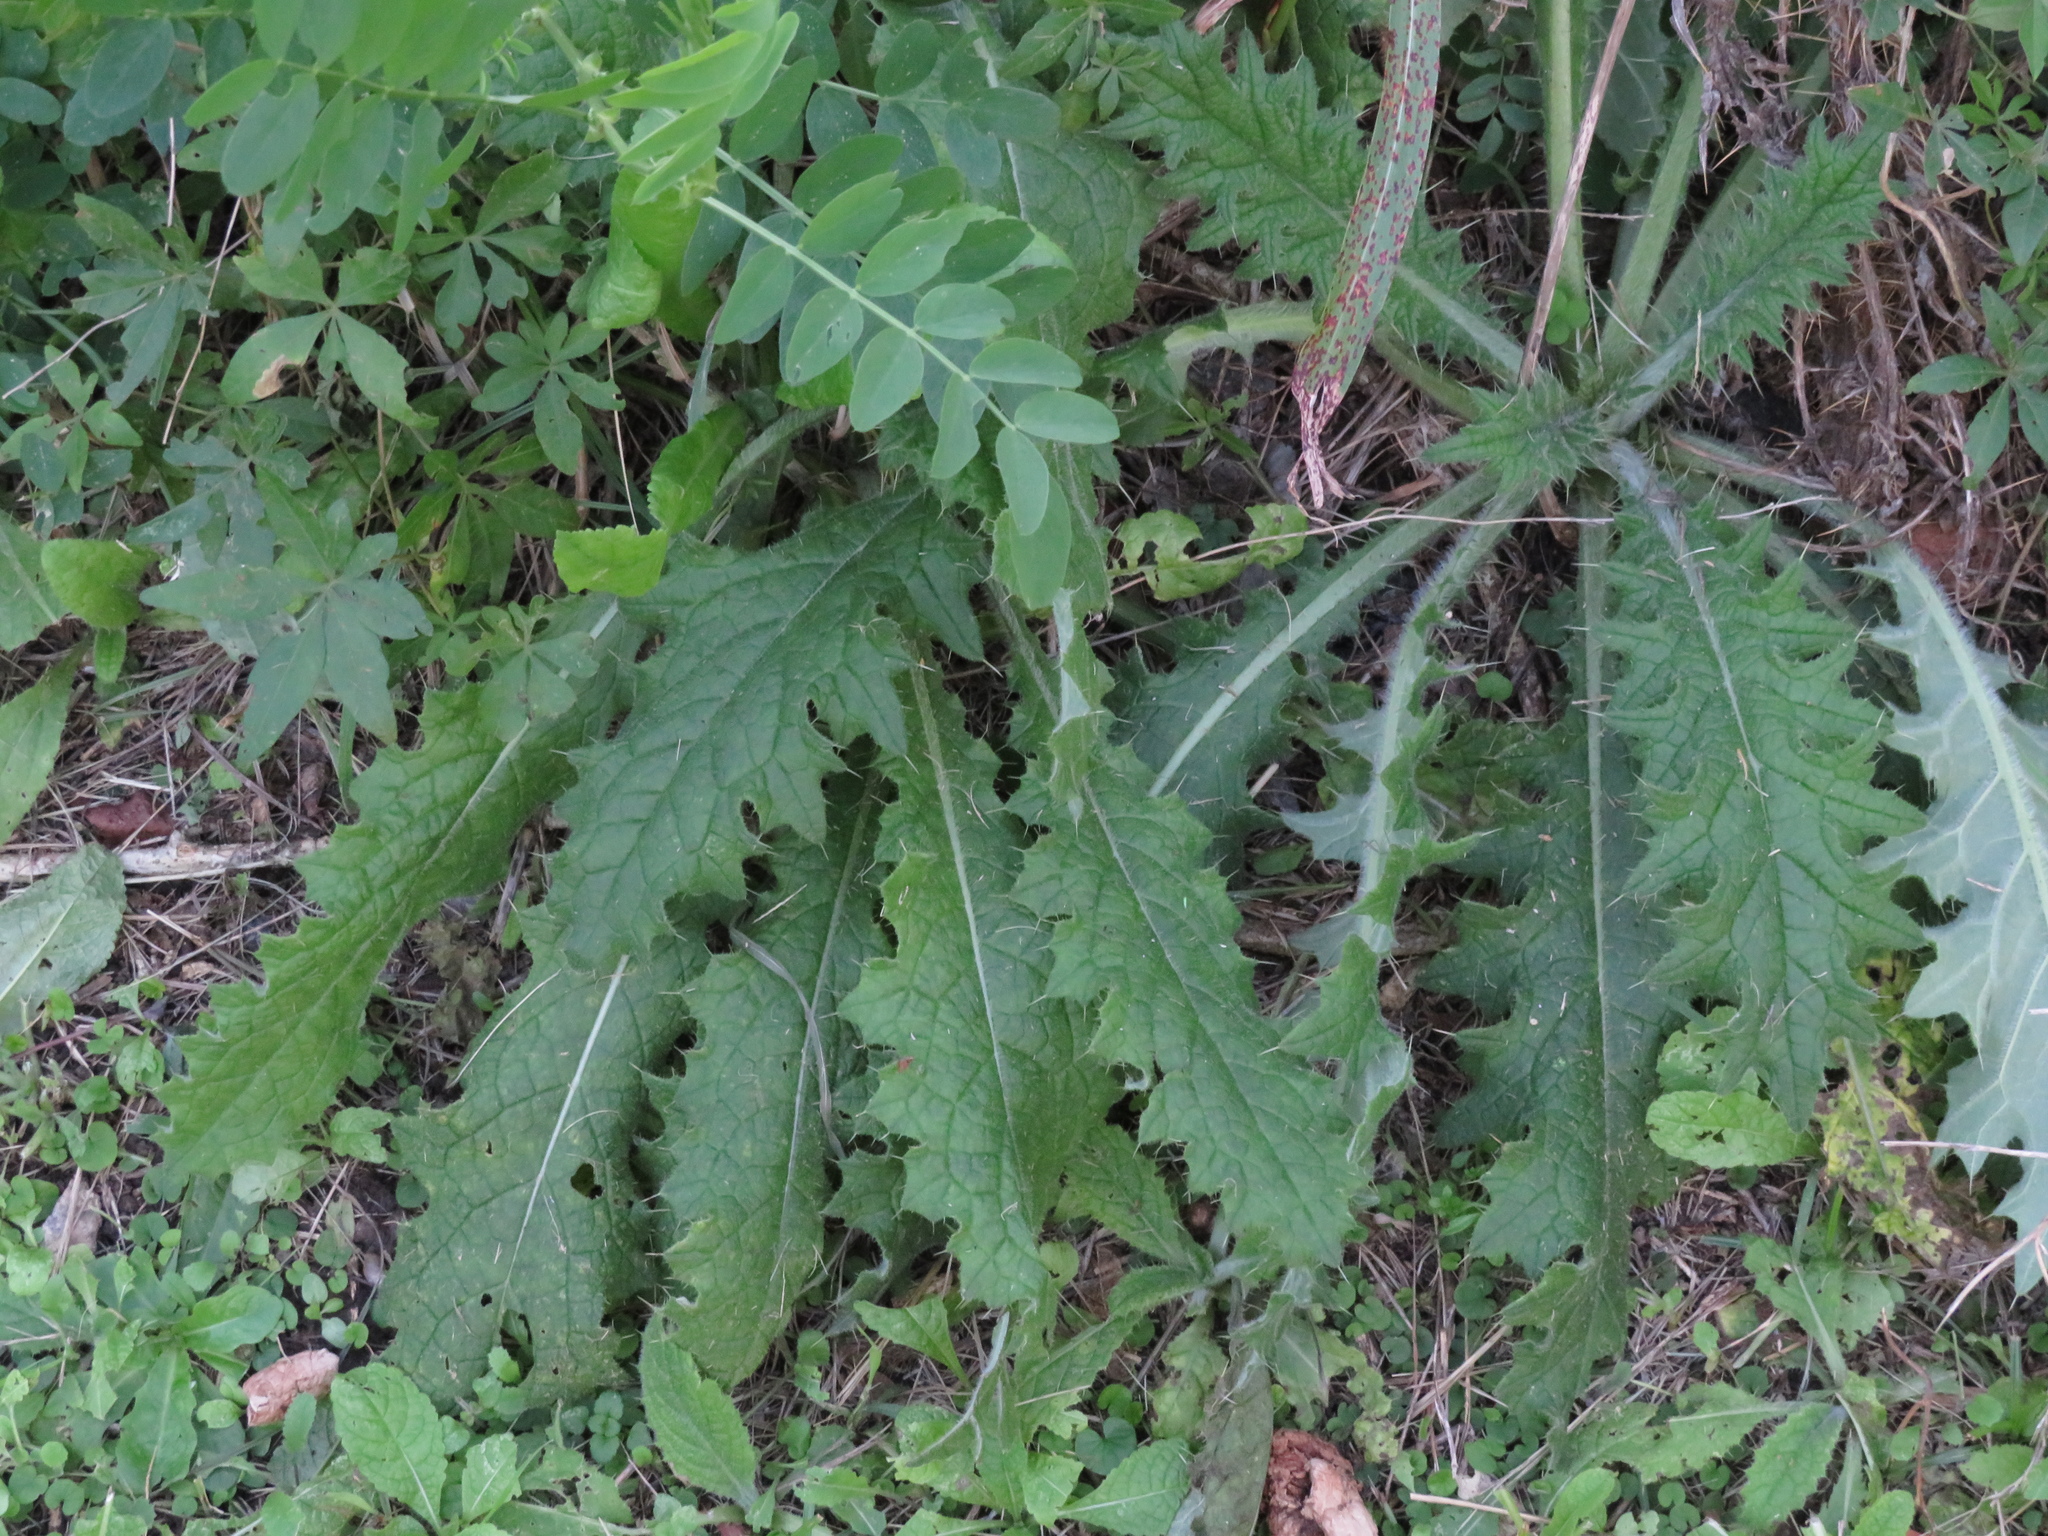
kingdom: Plantae
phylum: Tracheophyta
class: Magnoliopsida
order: Asterales
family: Asteraceae
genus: Cirsium
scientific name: Cirsium vulgare
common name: Bull thistle
